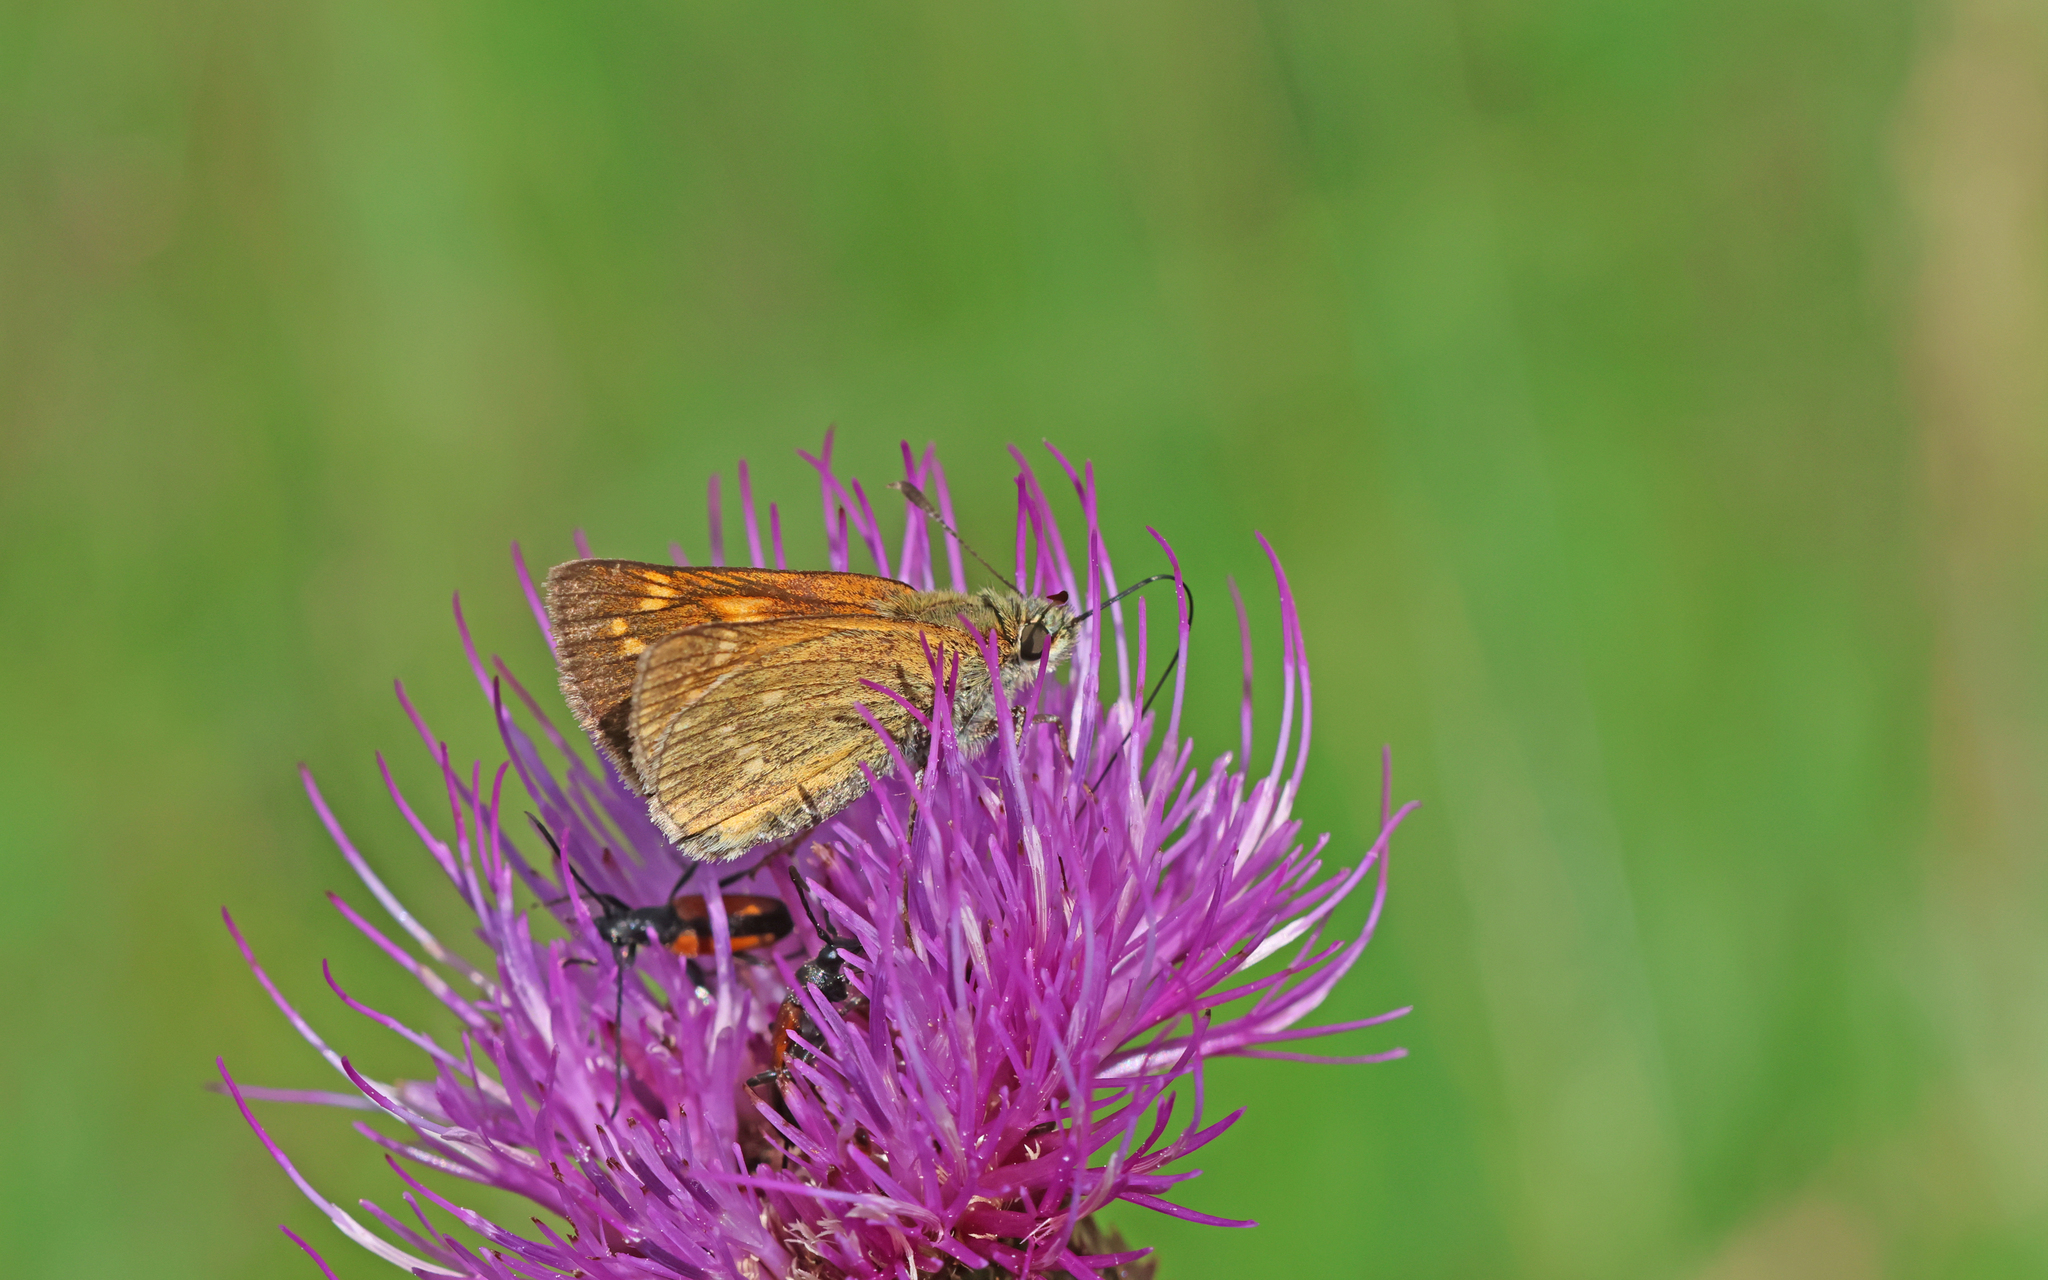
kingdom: Animalia
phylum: Arthropoda
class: Insecta
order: Lepidoptera
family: Hesperiidae
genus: Ochlodes
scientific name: Ochlodes venata
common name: Large skipper
